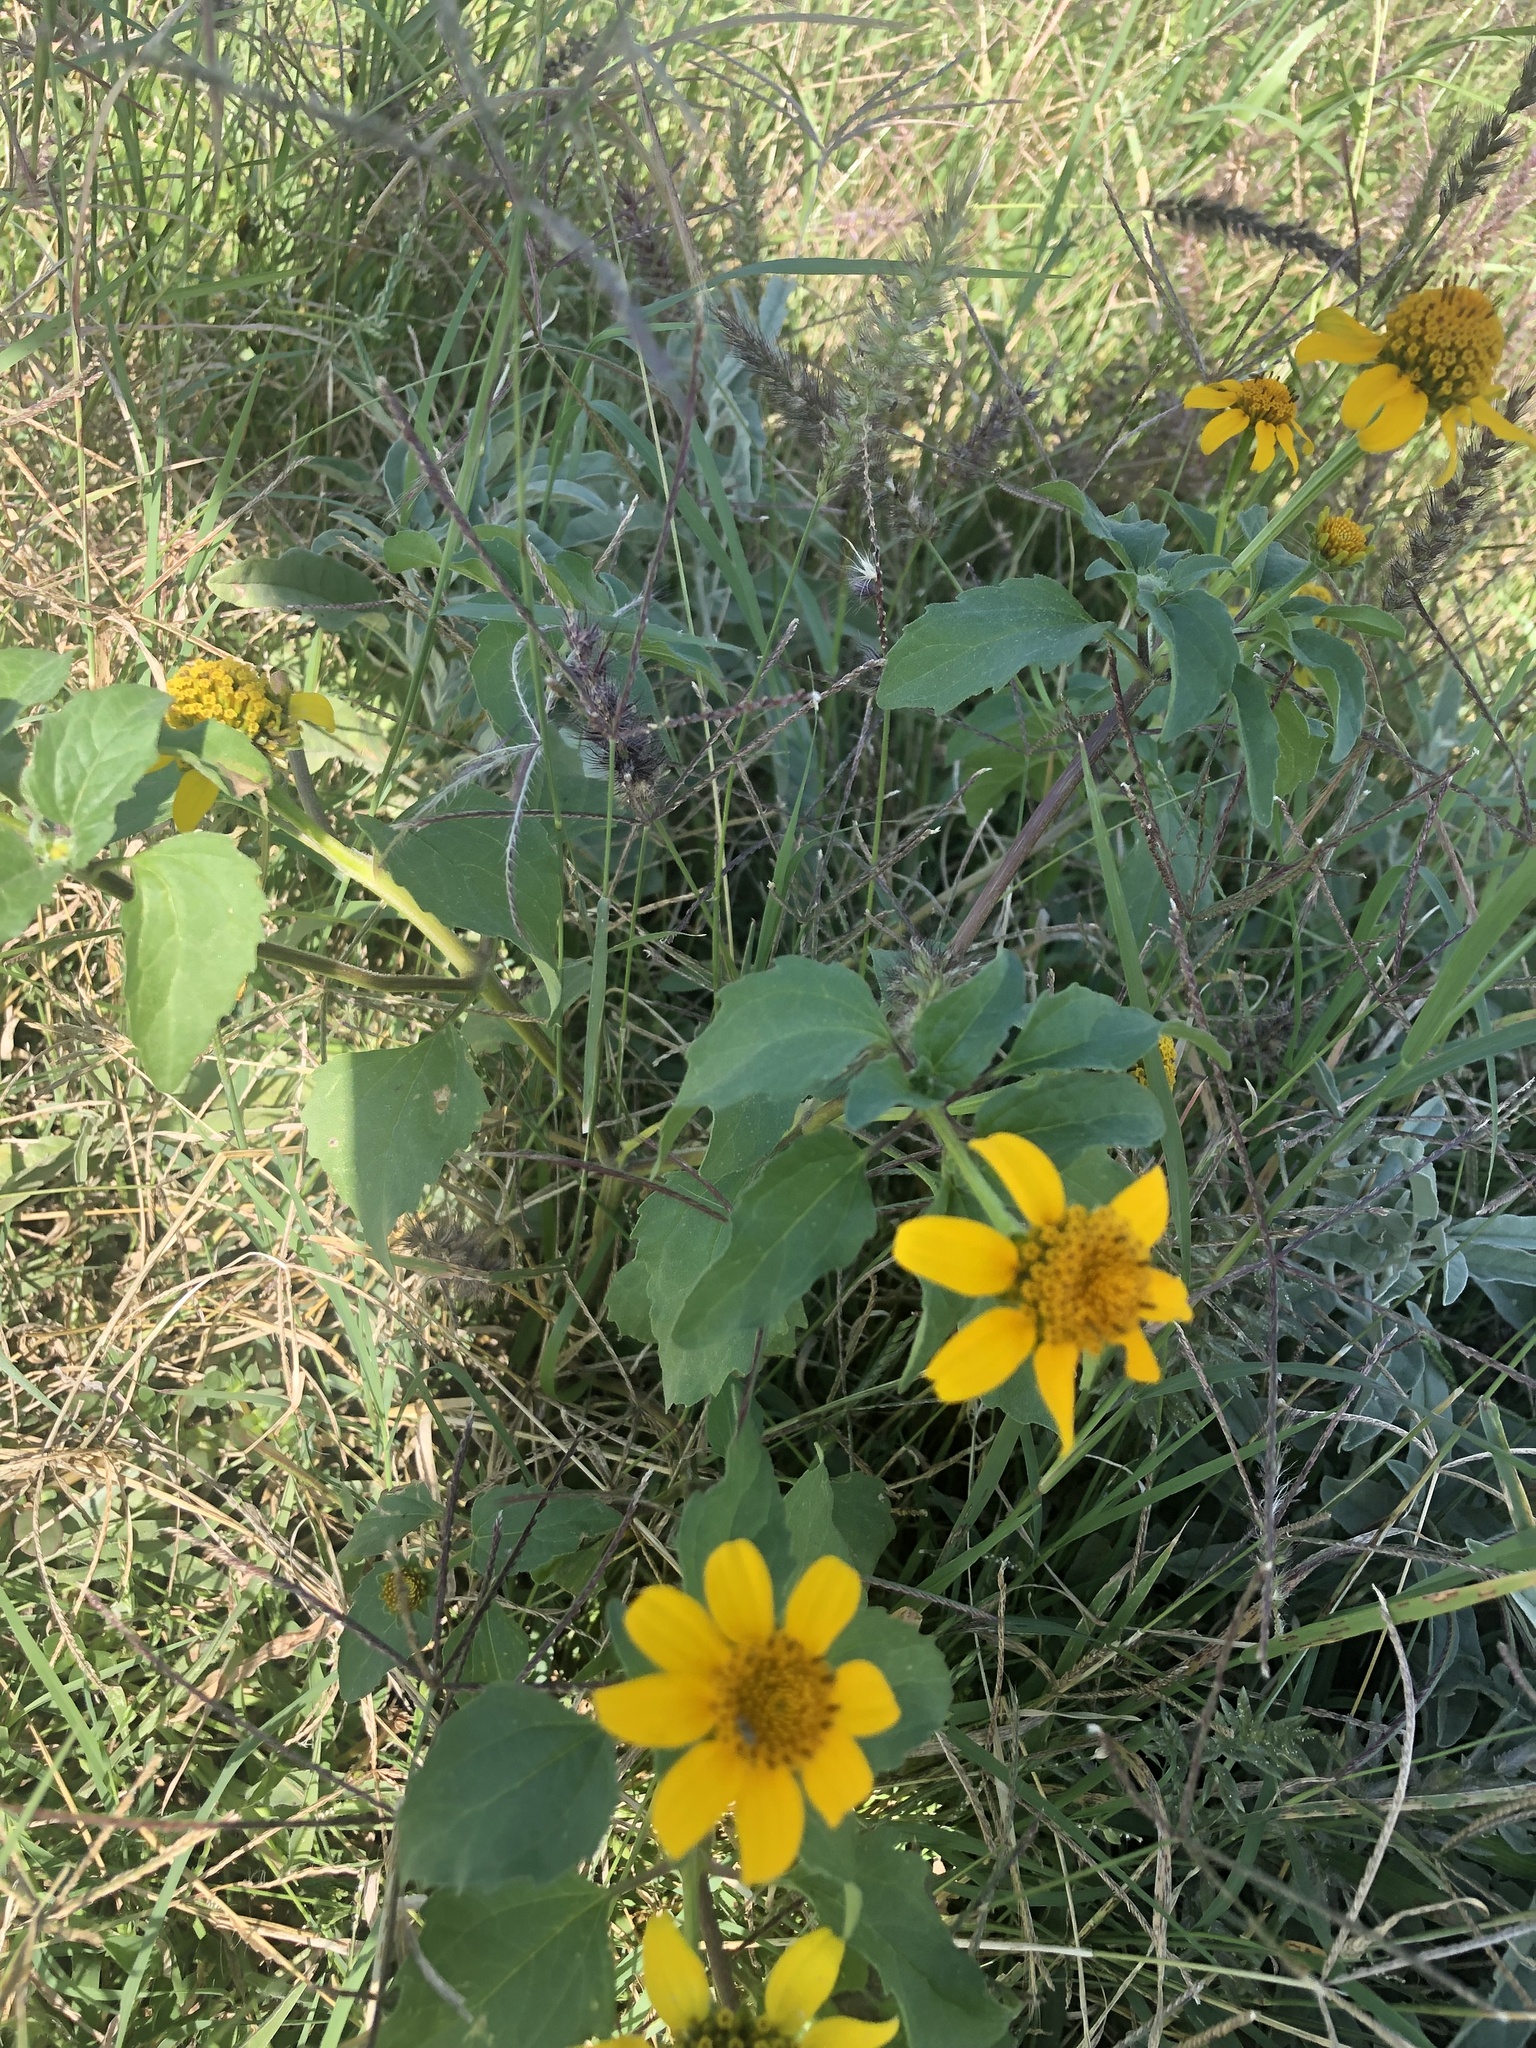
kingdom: Plantae
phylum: Tracheophyta
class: Magnoliopsida
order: Asterales
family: Asteraceae
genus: Heliopsis
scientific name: Heliopsis annua
